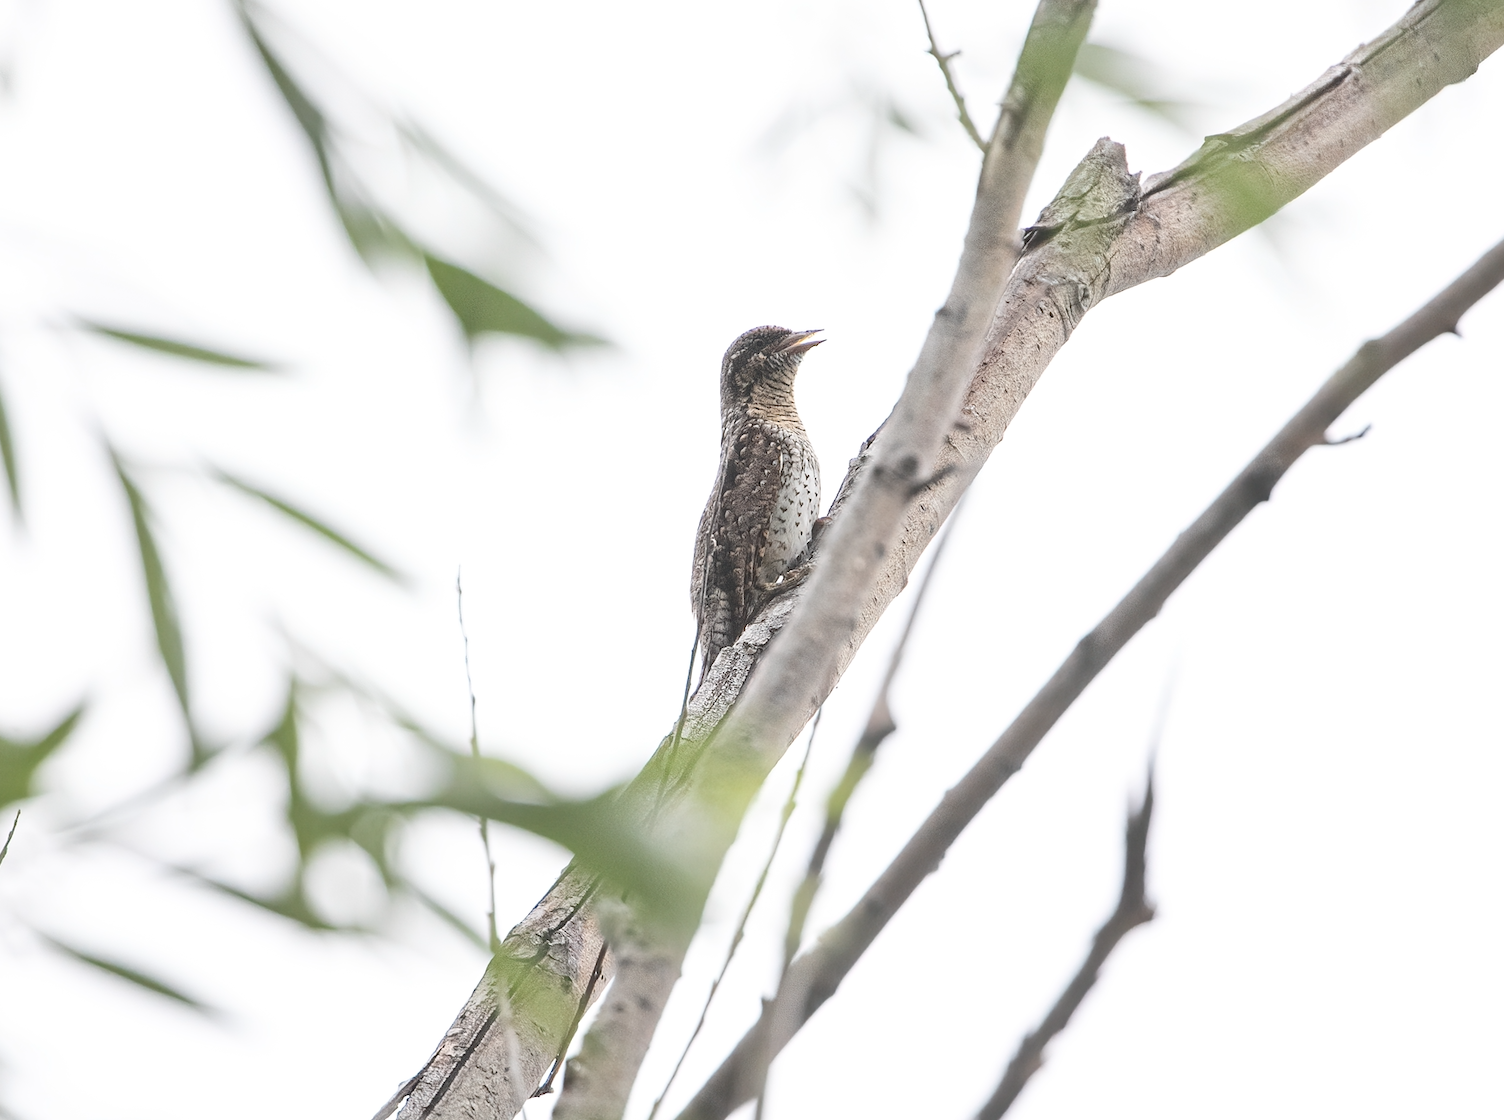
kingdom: Animalia
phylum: Chordata
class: Aves
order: Piciformes
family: Picidae
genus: Jynx
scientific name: Jynx torquilla
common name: Eurasian wryneck
